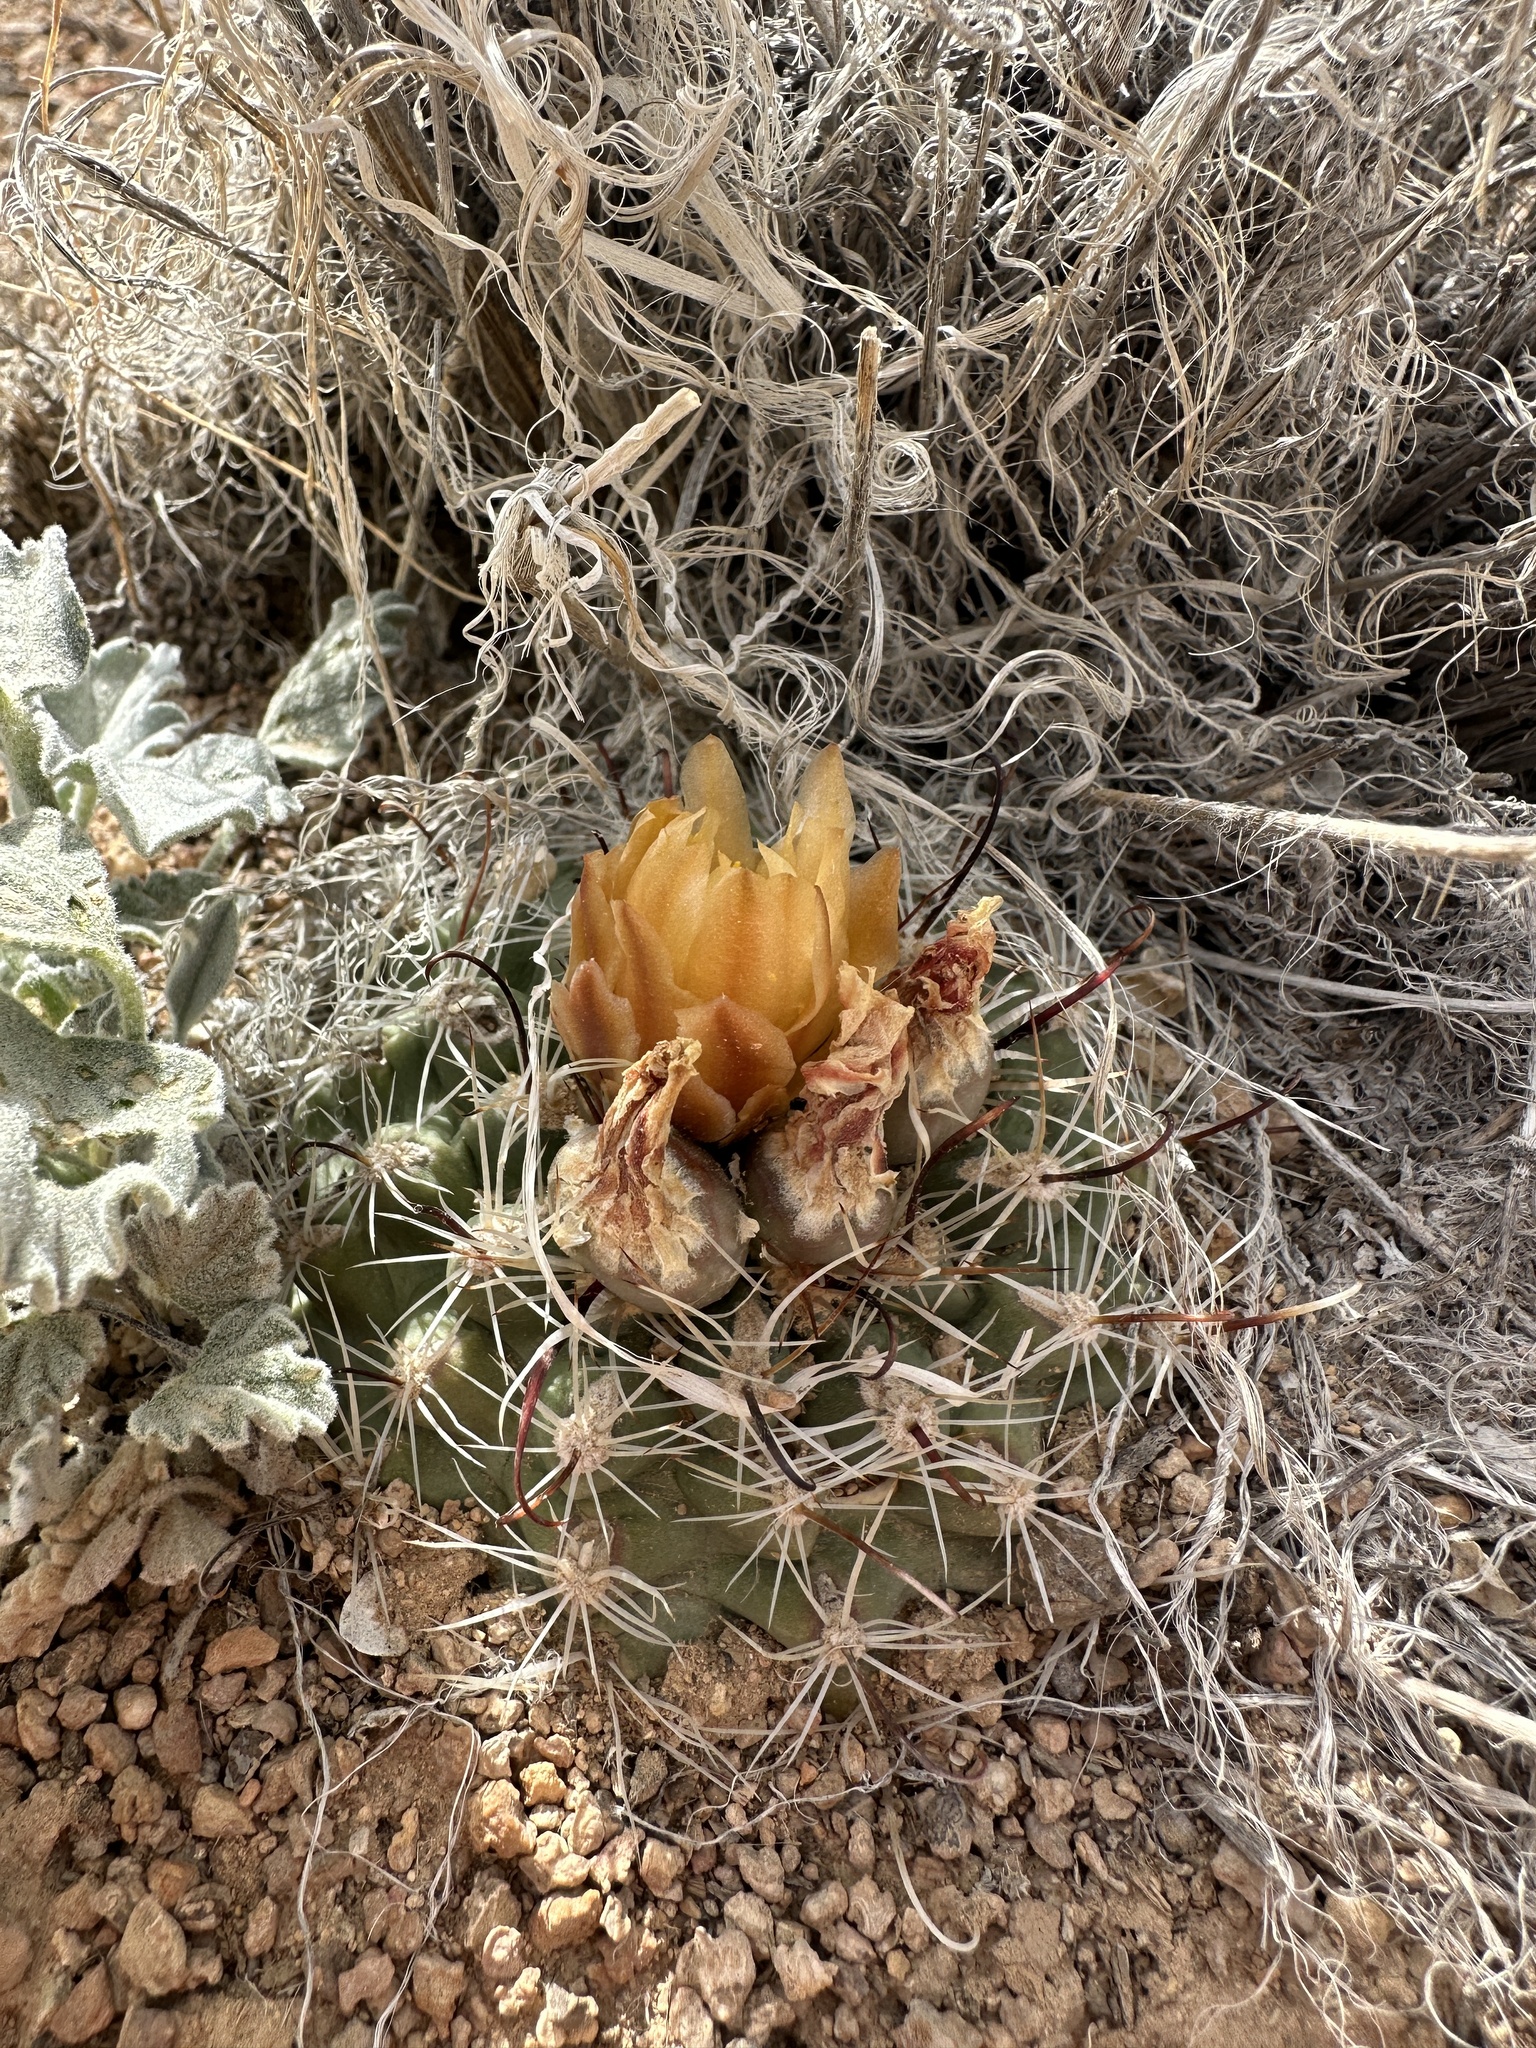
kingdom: Plantae
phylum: Tracheophyta
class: Magnoliopsida
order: Caryophyllales
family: Cactaceae
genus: Sclerocactus
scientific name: Sclerocactus pubispinus
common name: Great basin fishhook cactus
